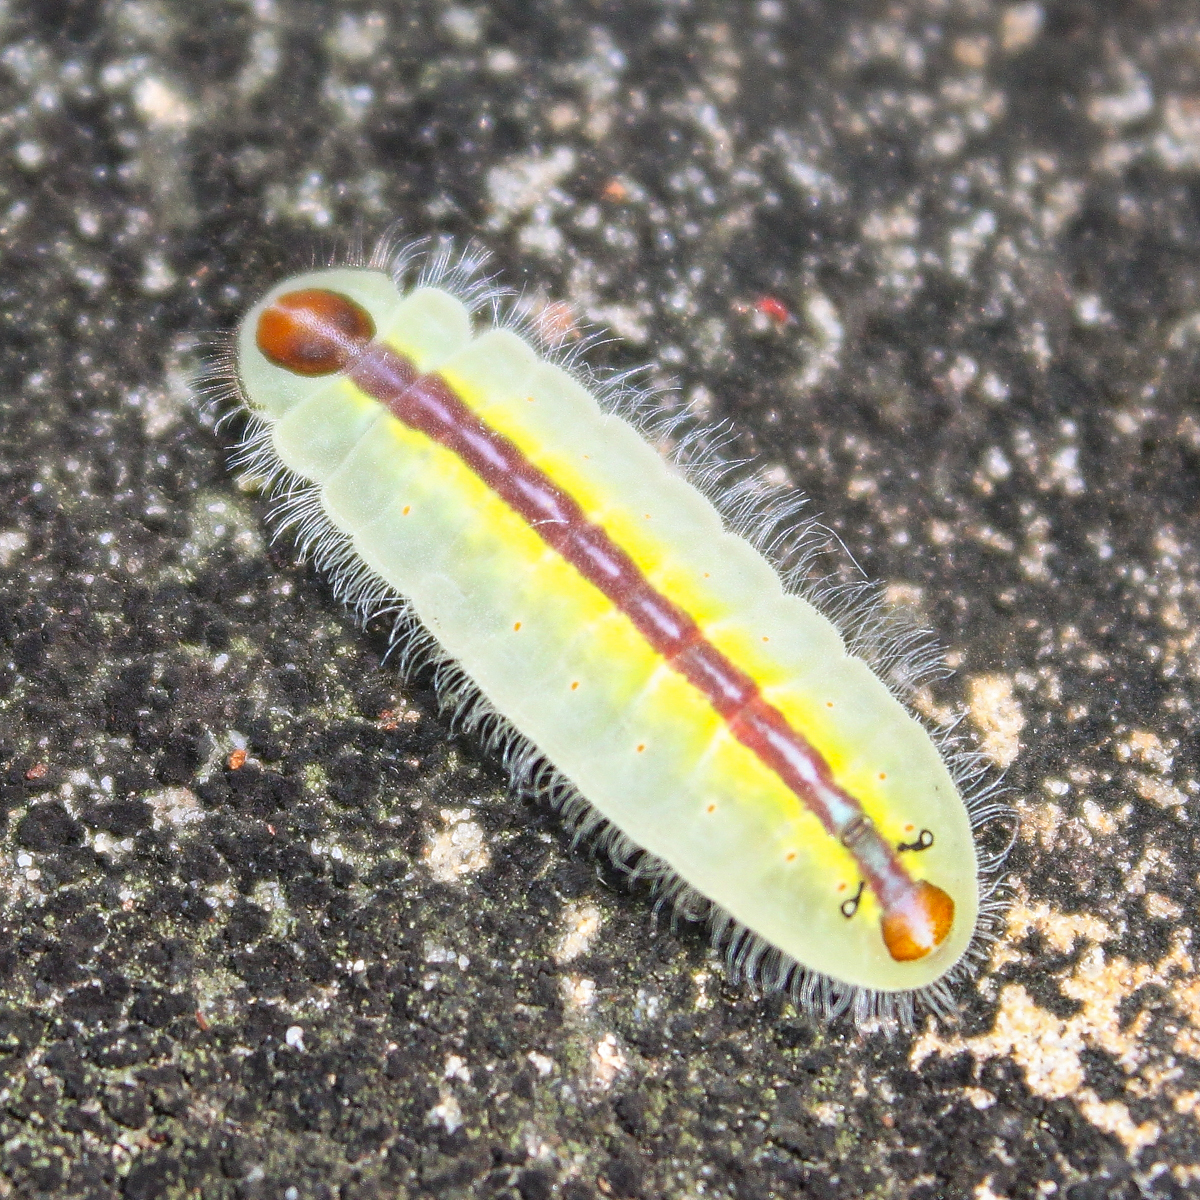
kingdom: Animalia
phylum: Arthropoda
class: Insecta
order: Lepidoptera
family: Lycaenidae
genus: Arhopala
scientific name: Arhopala athada
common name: Vinous oakblue
